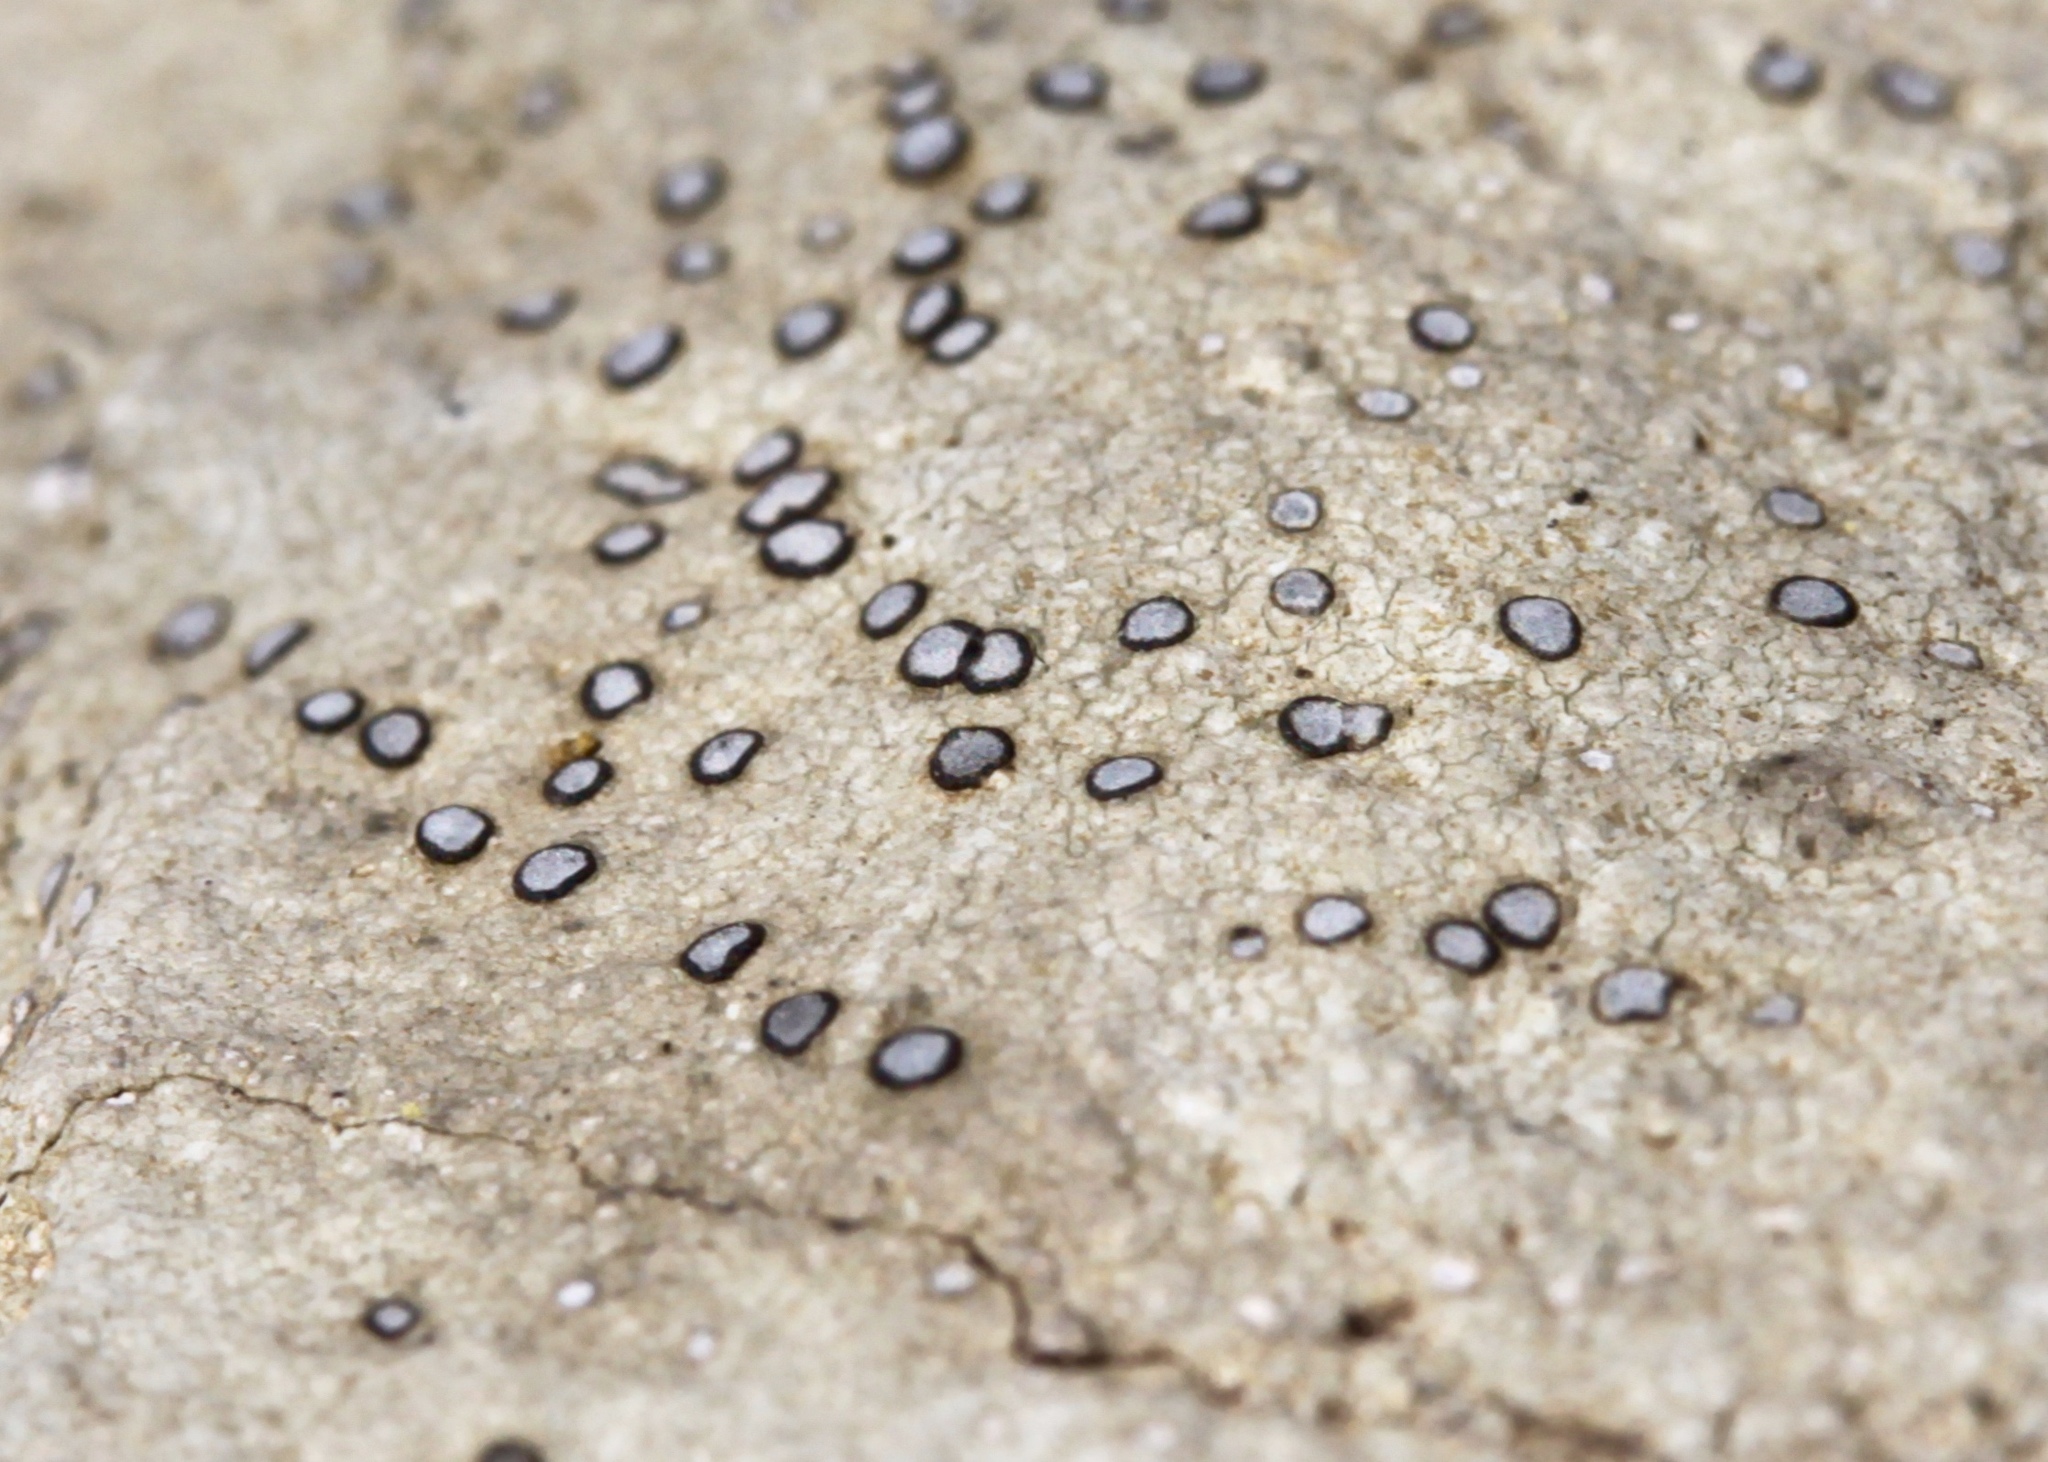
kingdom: Fungi
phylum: Ascomycota
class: Lecanoromycetes
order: Lecideales
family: Lecideaceae
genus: Porpidia
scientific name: Porpidia albocaerulescens
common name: Smokey-eyed boulder lichen
